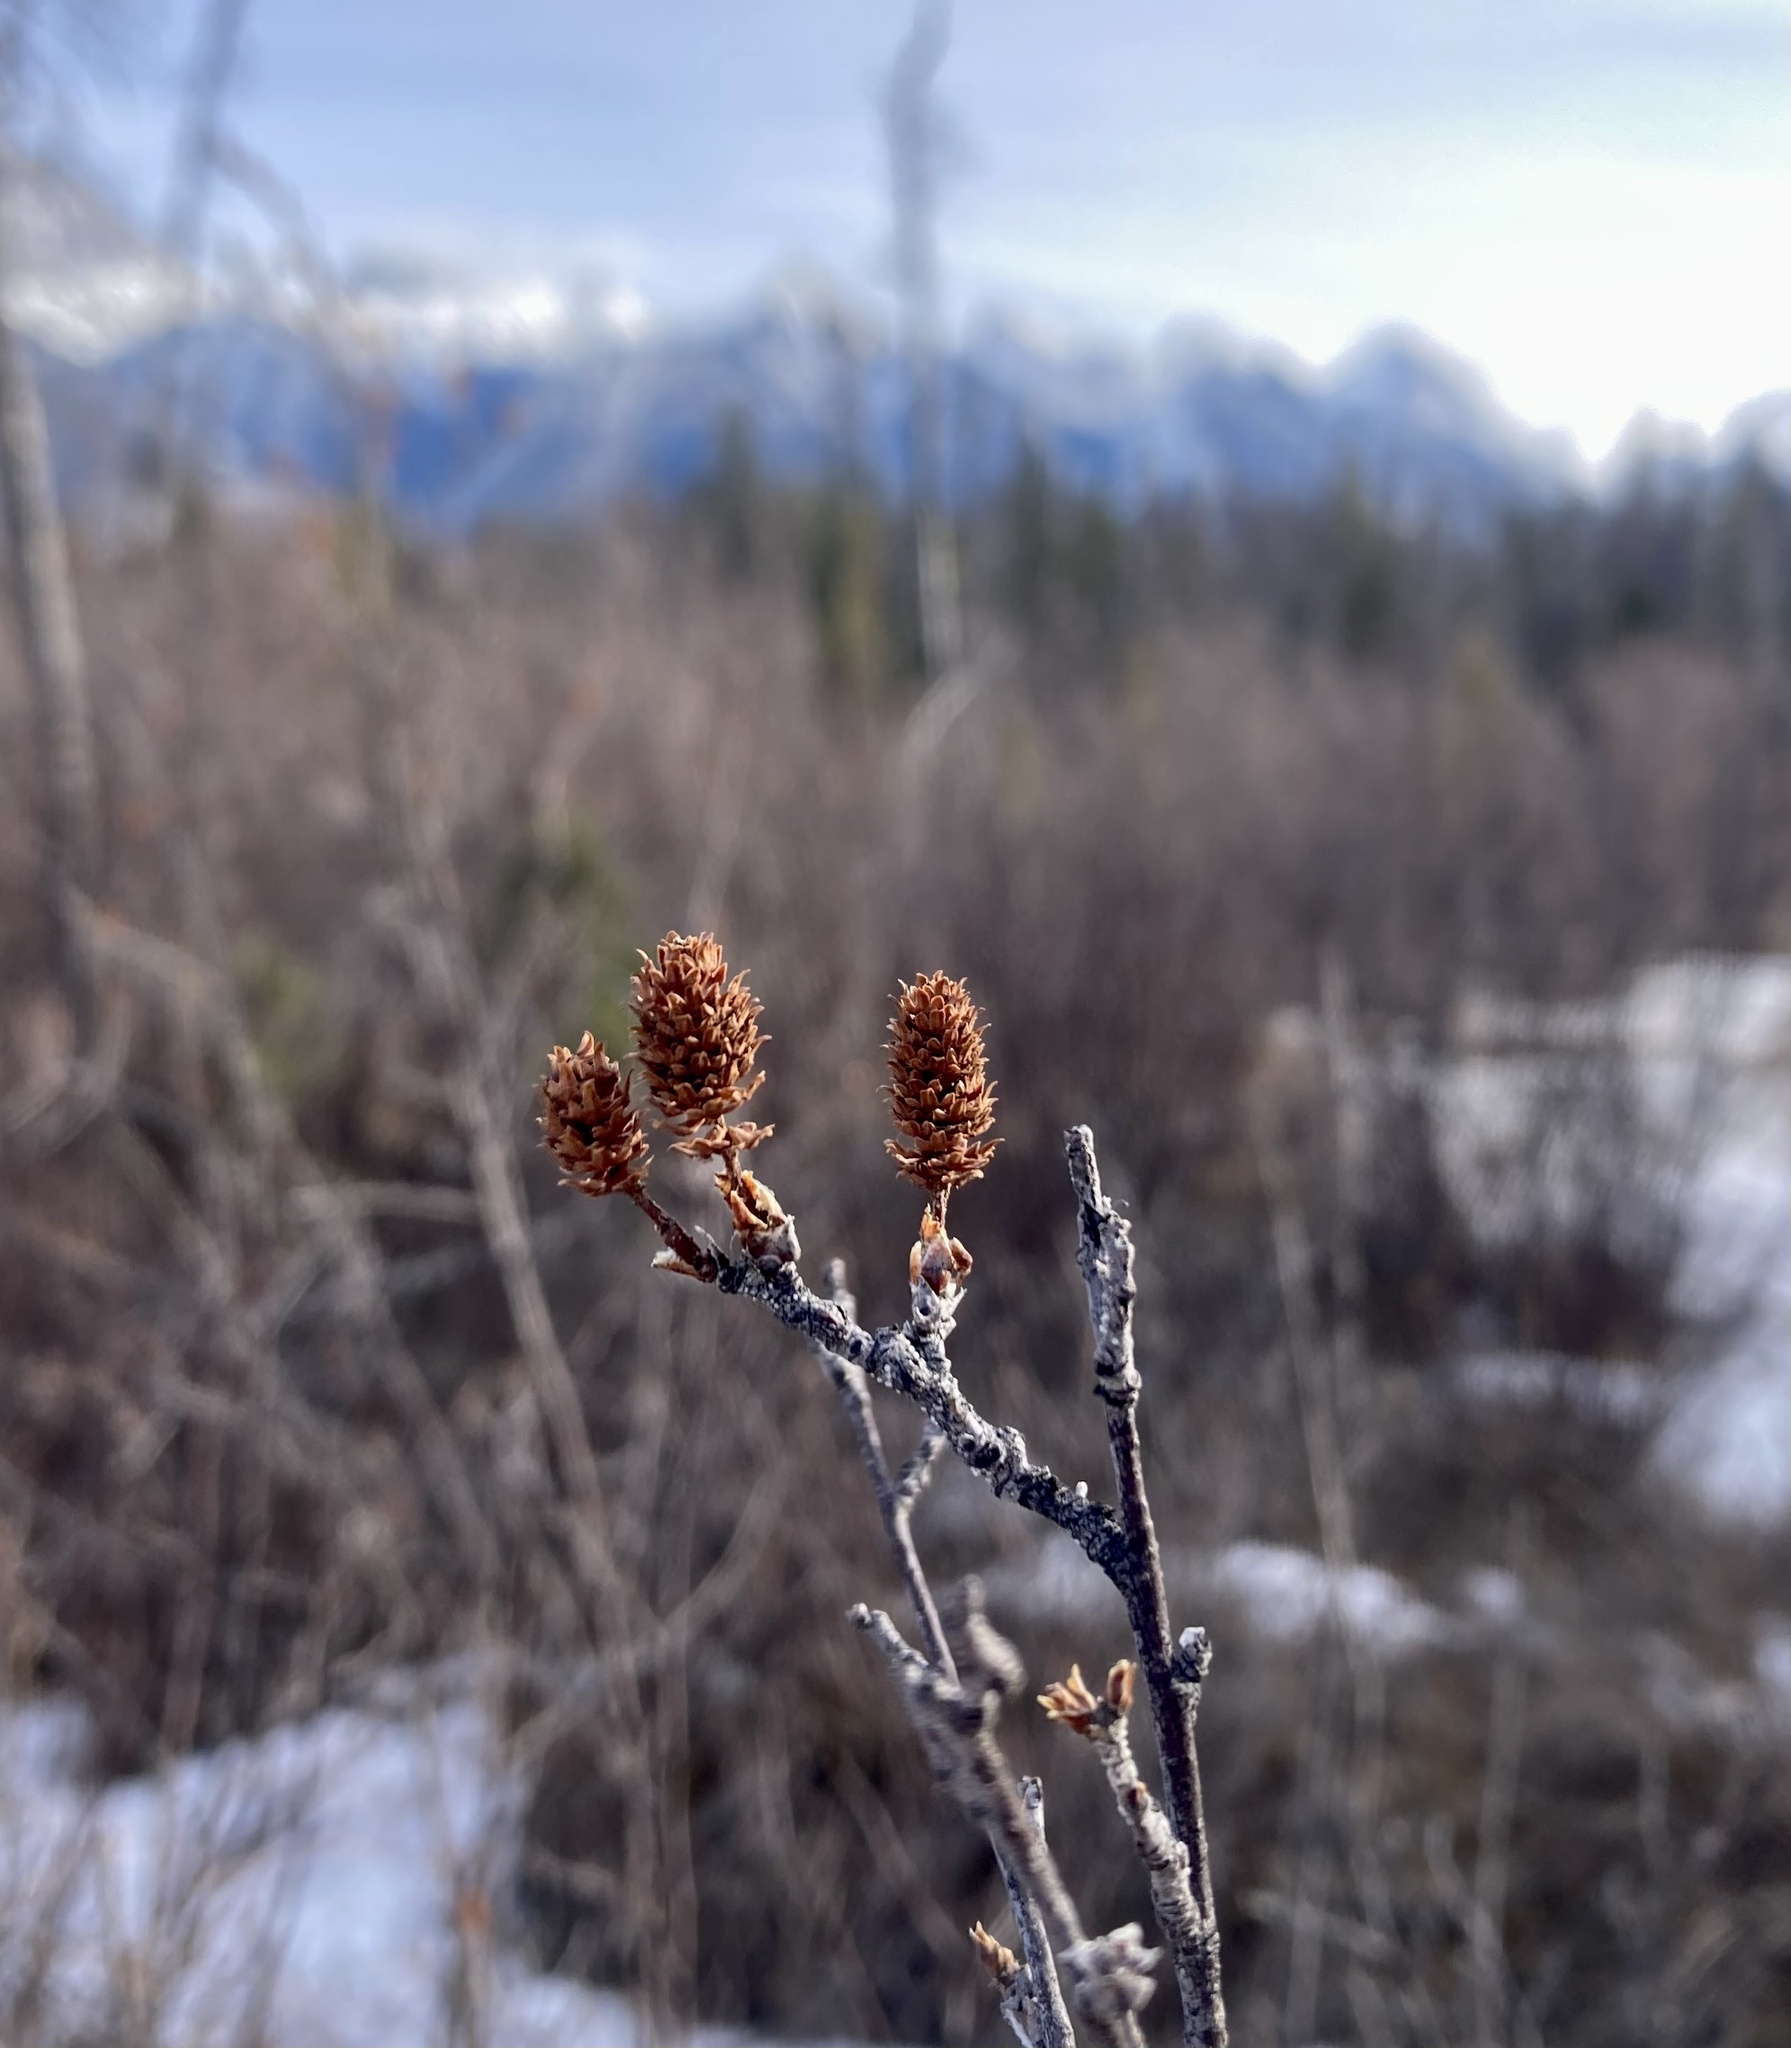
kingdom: Plantae
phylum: Tracheophyta
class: Magnoliopsida
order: Fagales
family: Betulaceae
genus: Betula
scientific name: Betula glandulosa
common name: Dwarf birch
